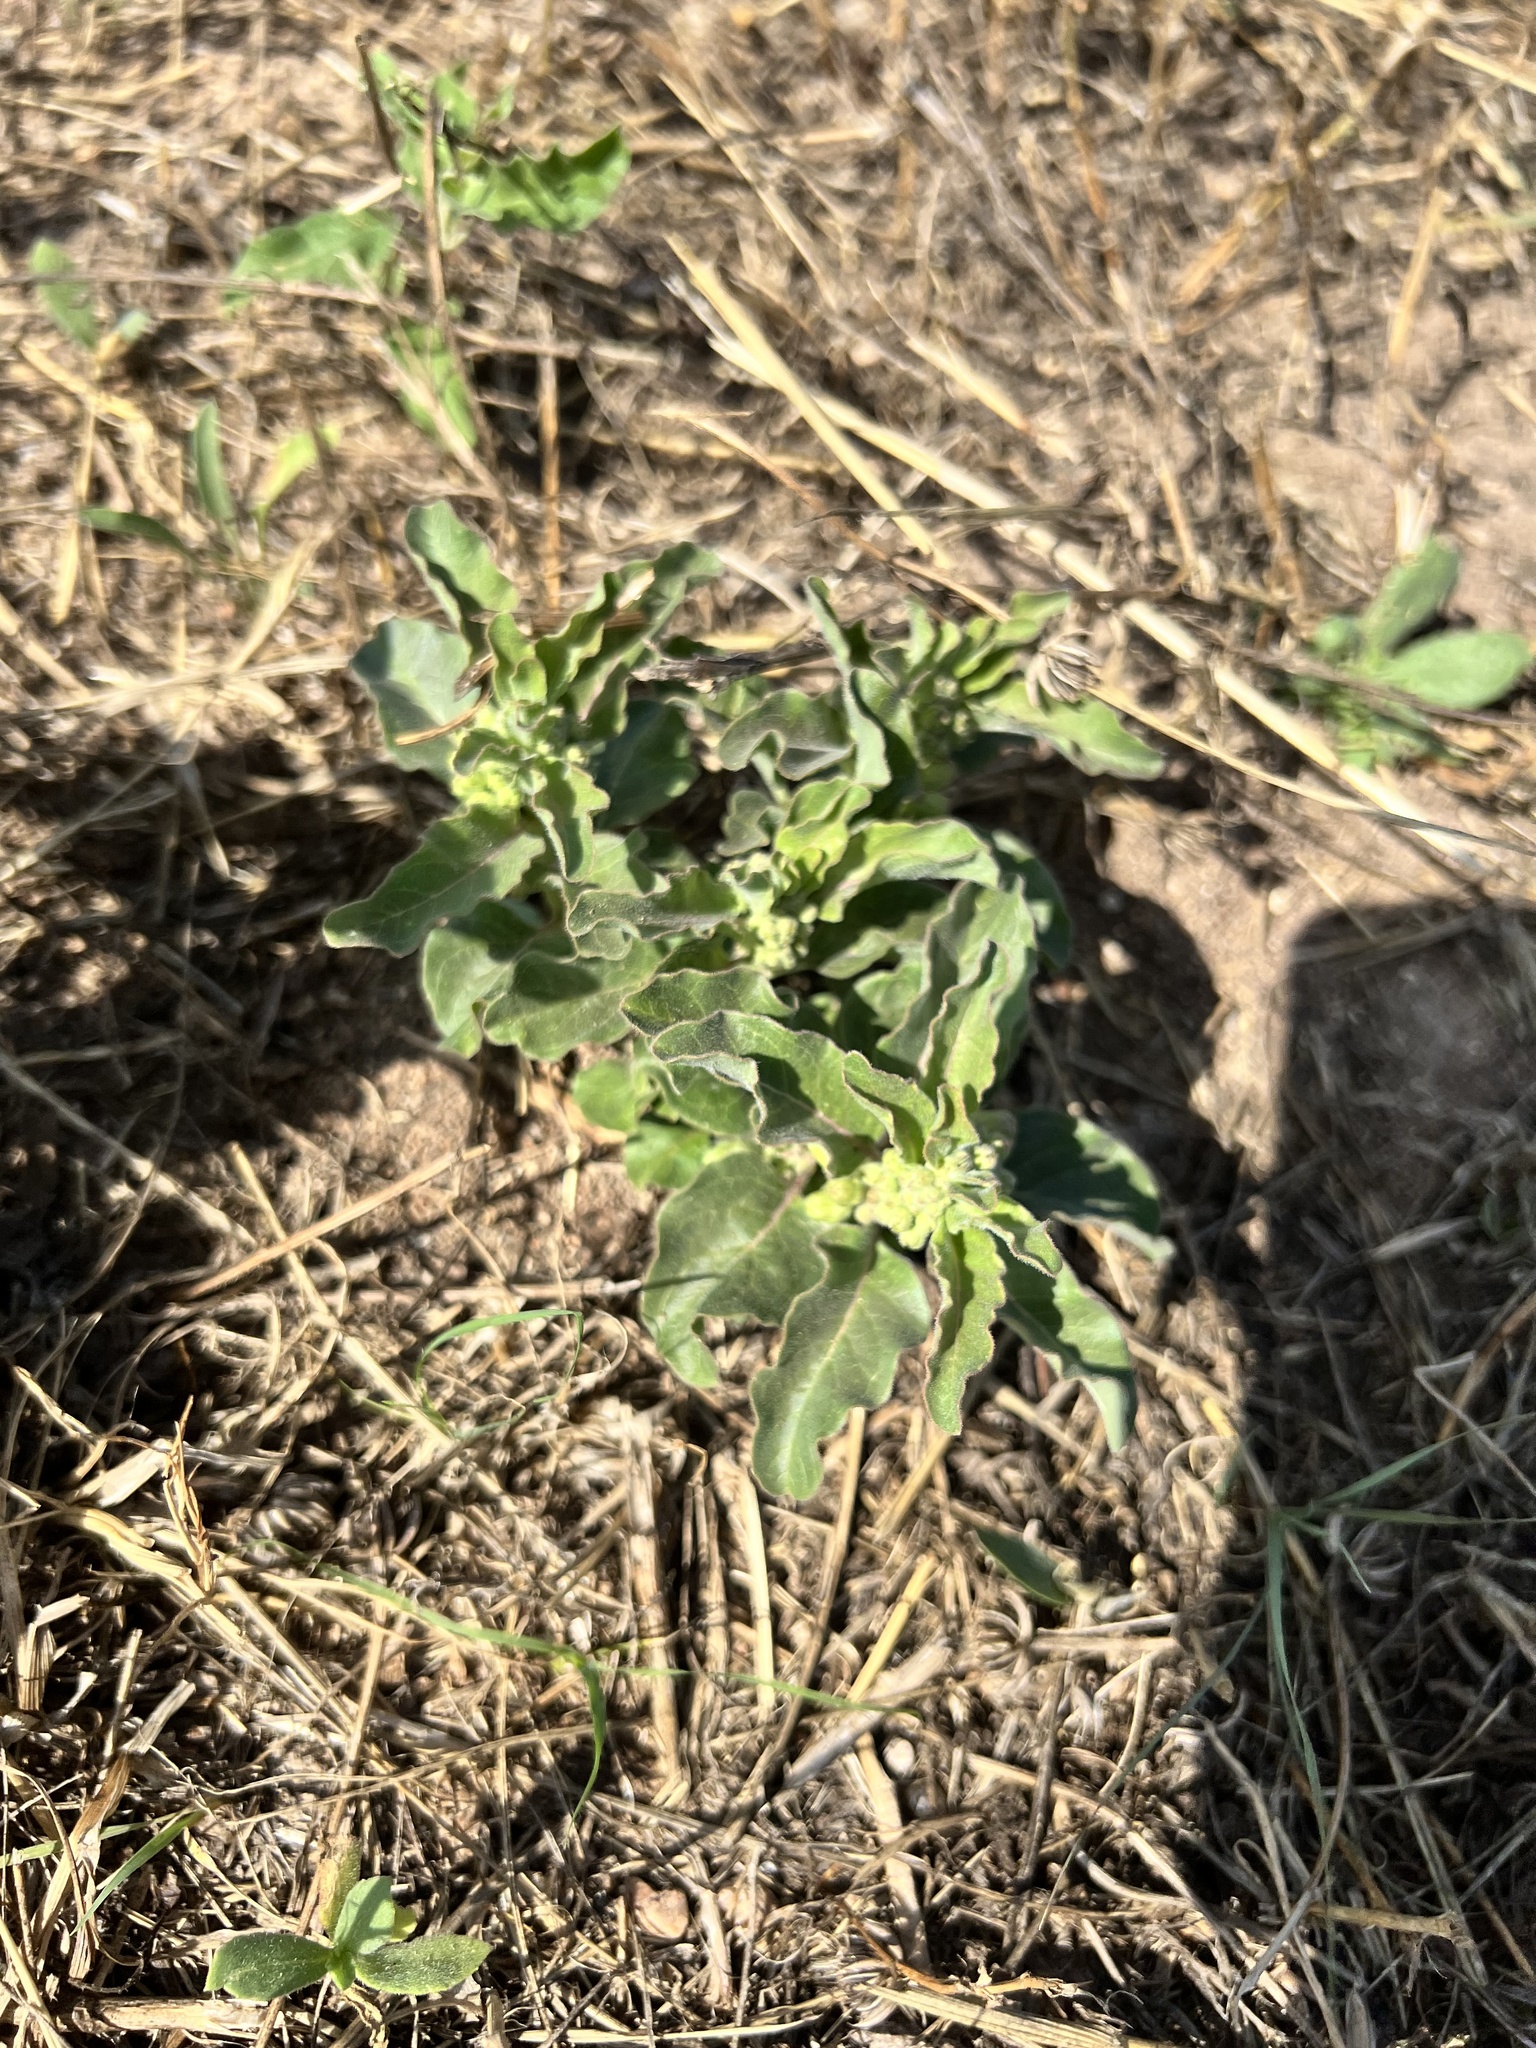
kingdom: Plantae
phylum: Tracheophyta
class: Magnoliopsida
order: Gentianales
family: Apocynaceae
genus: Asclepias
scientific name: Asclepias oenotheroides
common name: Zizotes milkweed
